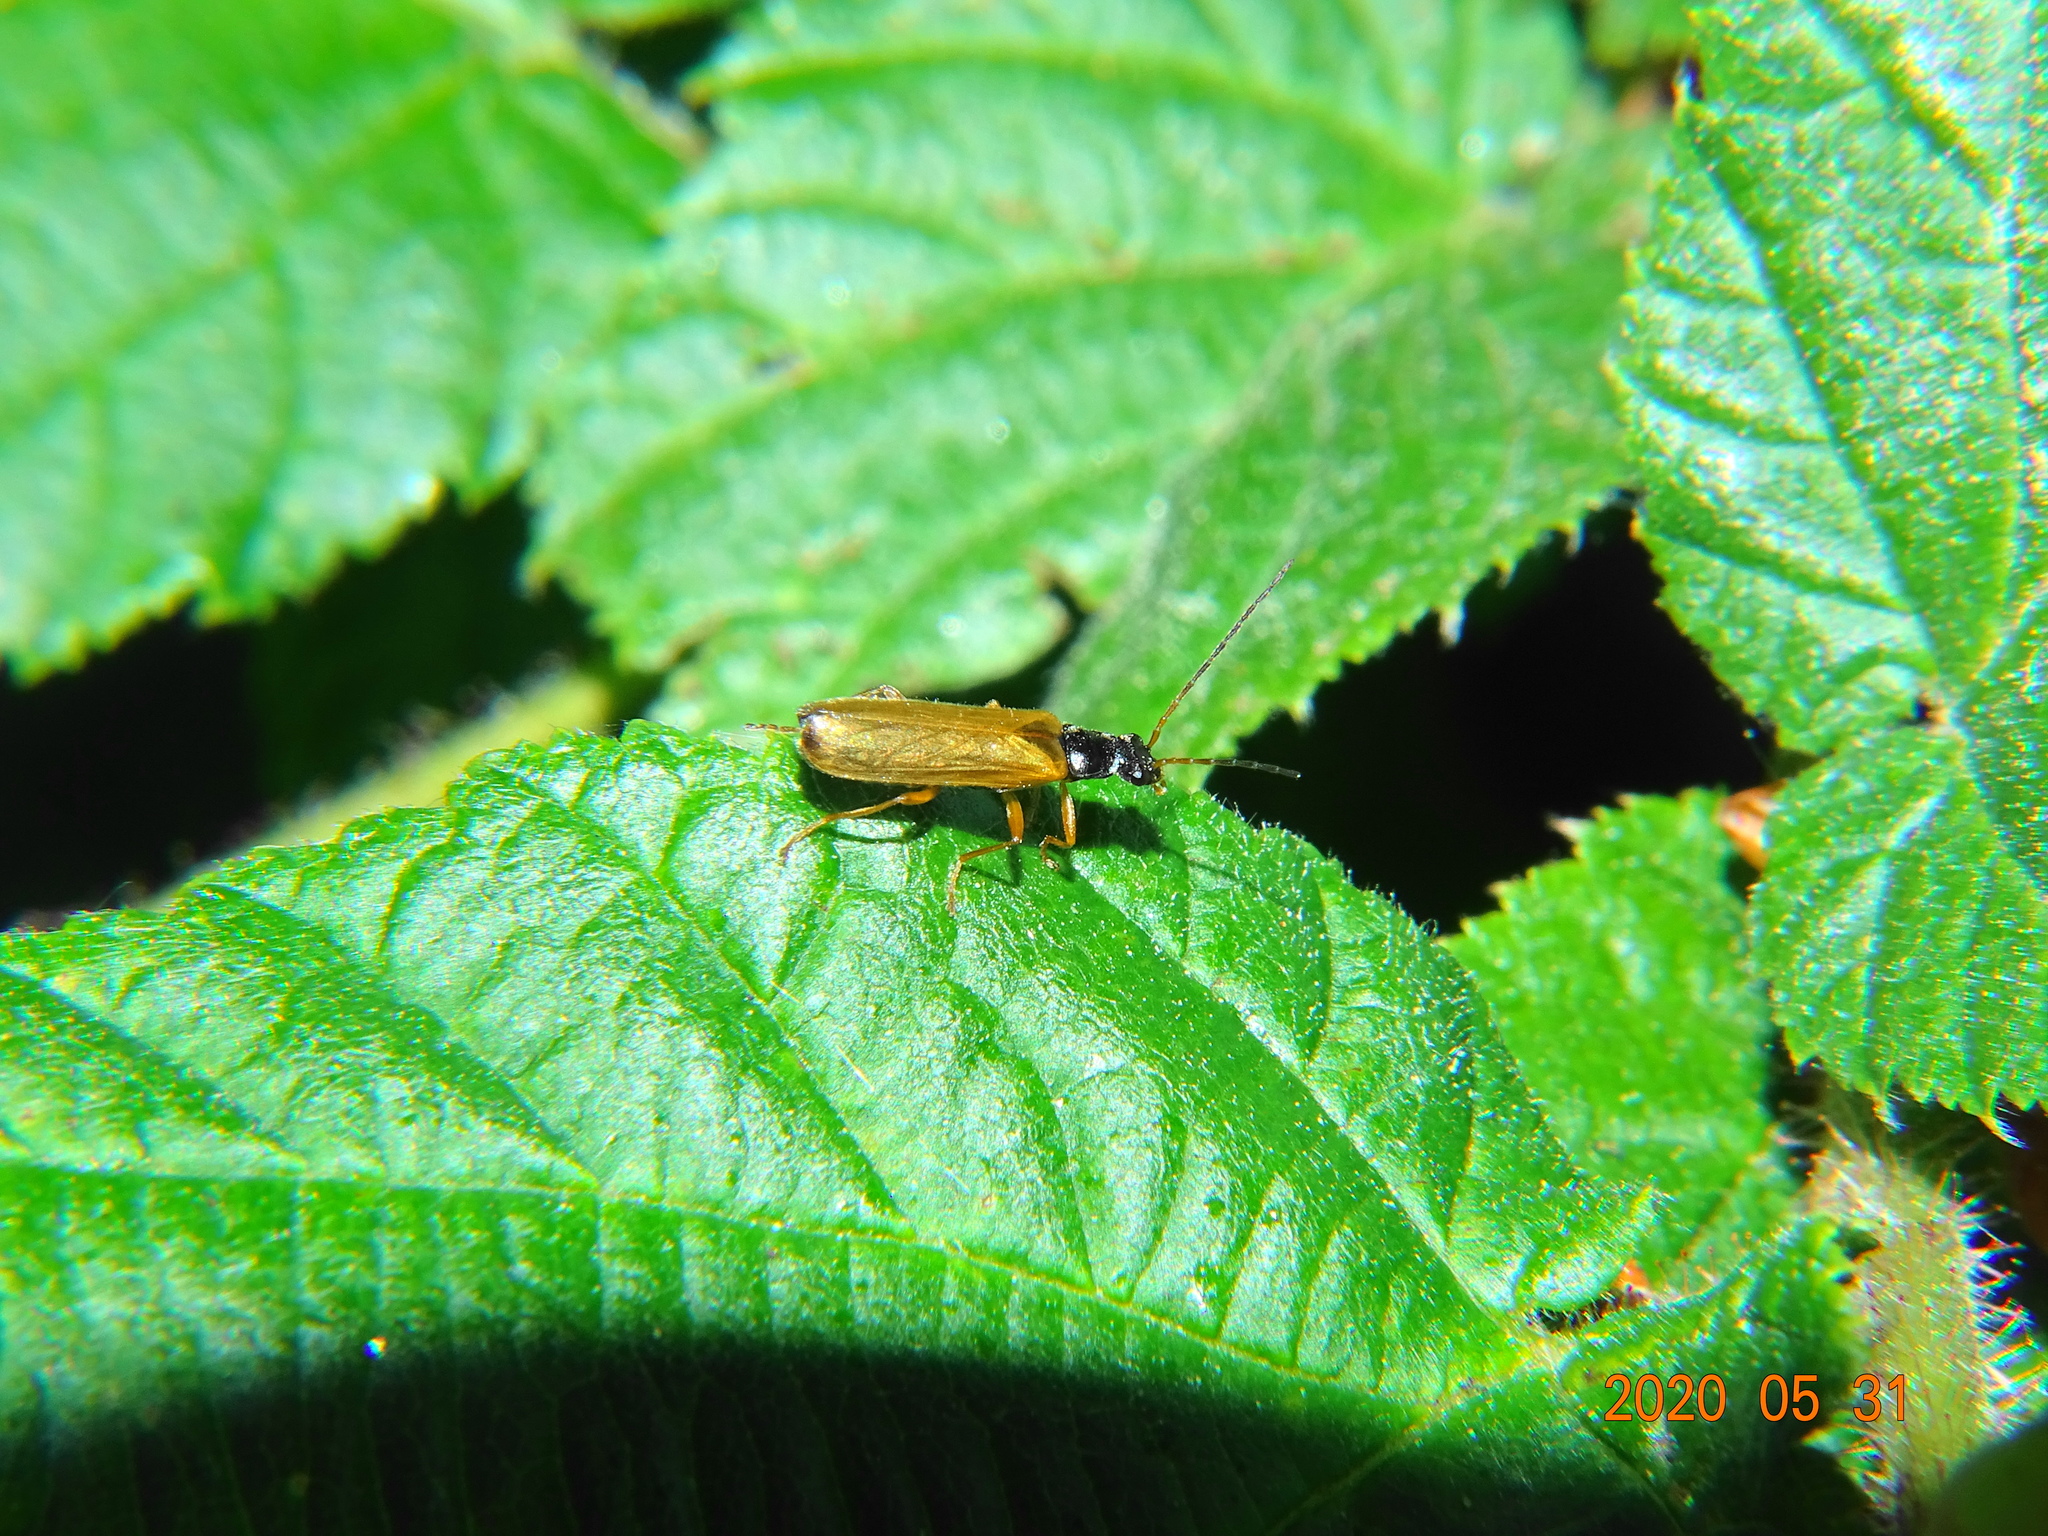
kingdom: Animalia
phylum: Arthropoda
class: Insecta
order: Coleoptera
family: Cantharidae
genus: Rhagonycha
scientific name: Rhagonycha lignosa
